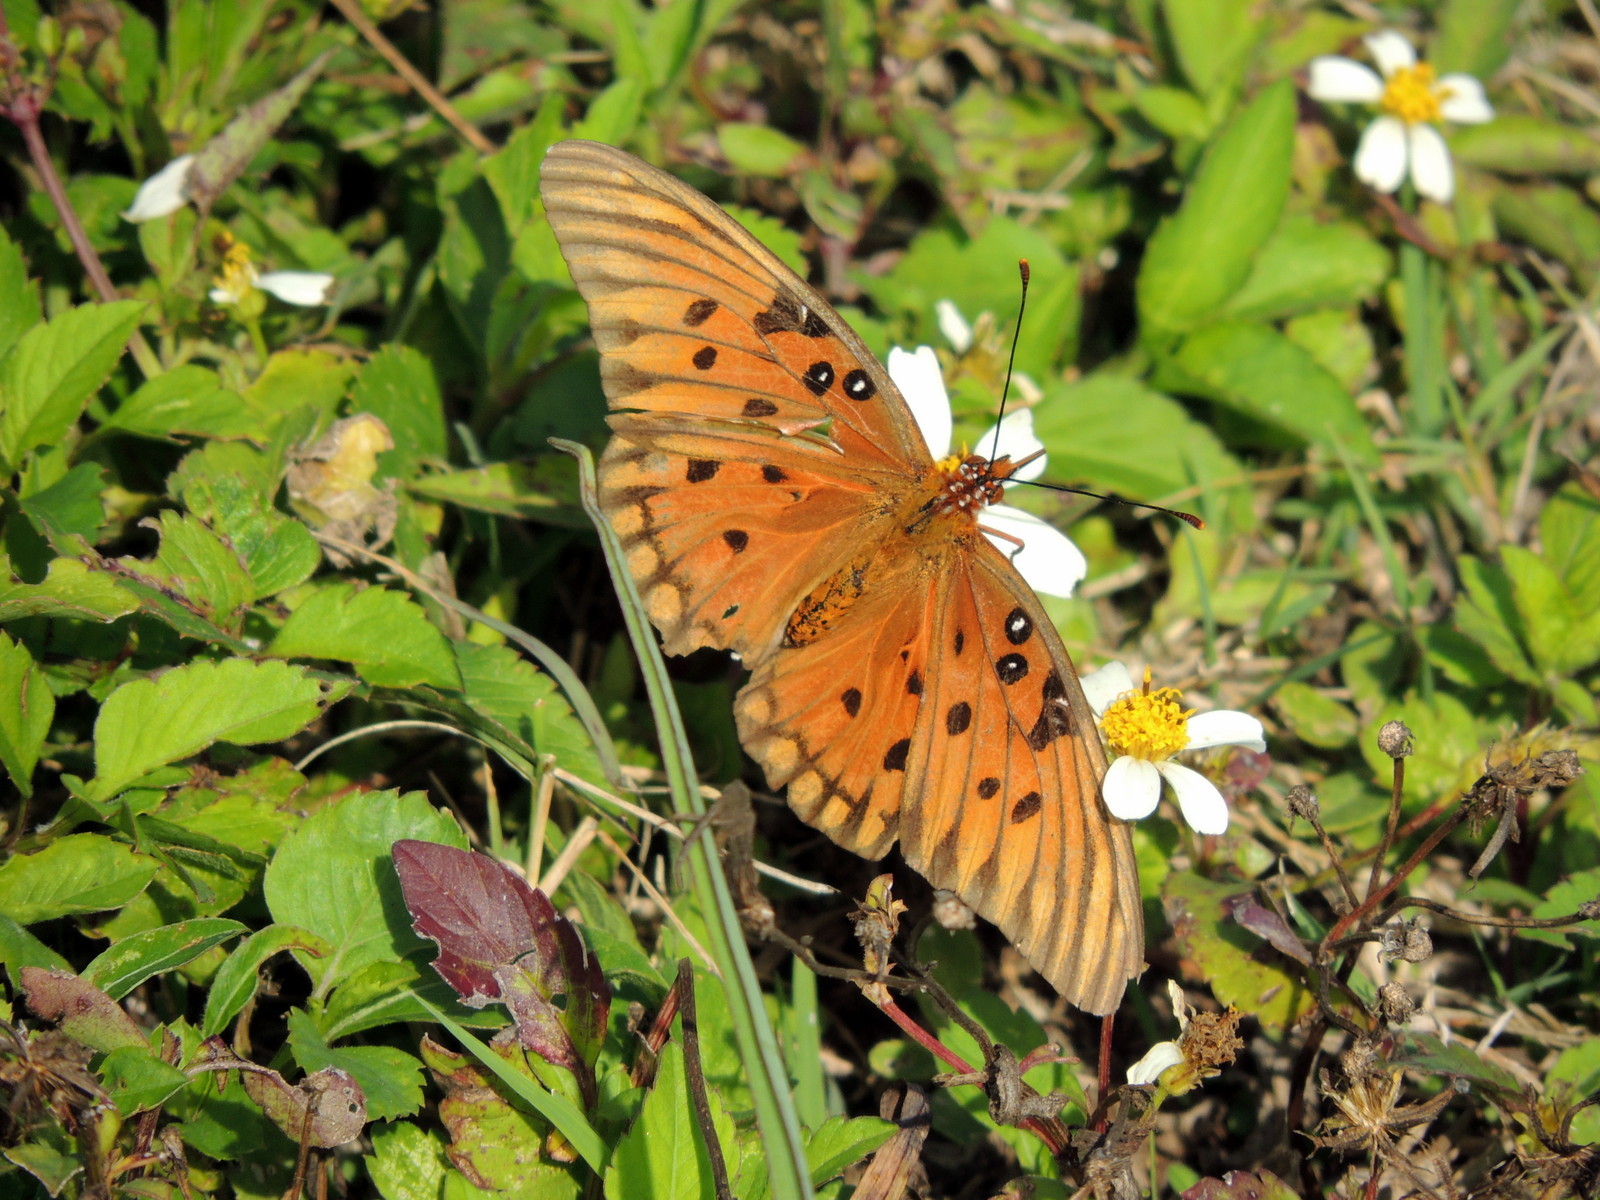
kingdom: Animalia
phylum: Arthropoda
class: Insecta
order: Lepidoptera
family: Nymphalidae
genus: Dione
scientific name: Dione vanillae
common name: Gulf fritillary
